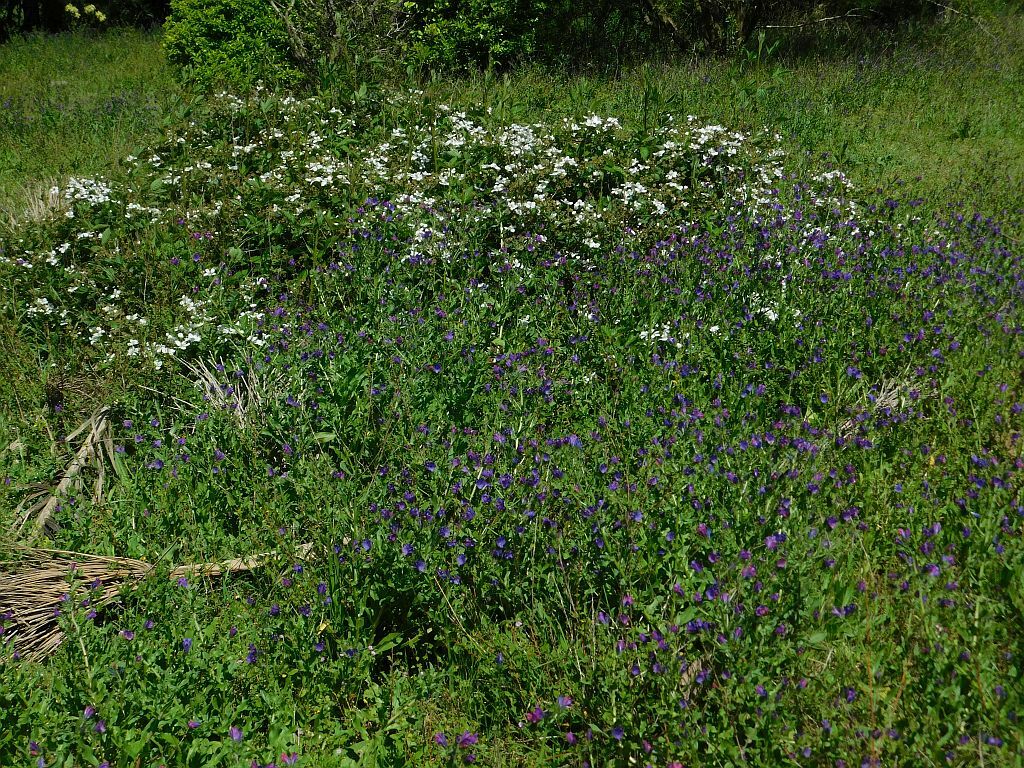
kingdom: Plantae
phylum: Tracheophyta
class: Magnoliopsida
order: Boraginales
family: Boraginaceae
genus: Echium
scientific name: Echium plantagineum
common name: Purple viper's-bugloss
